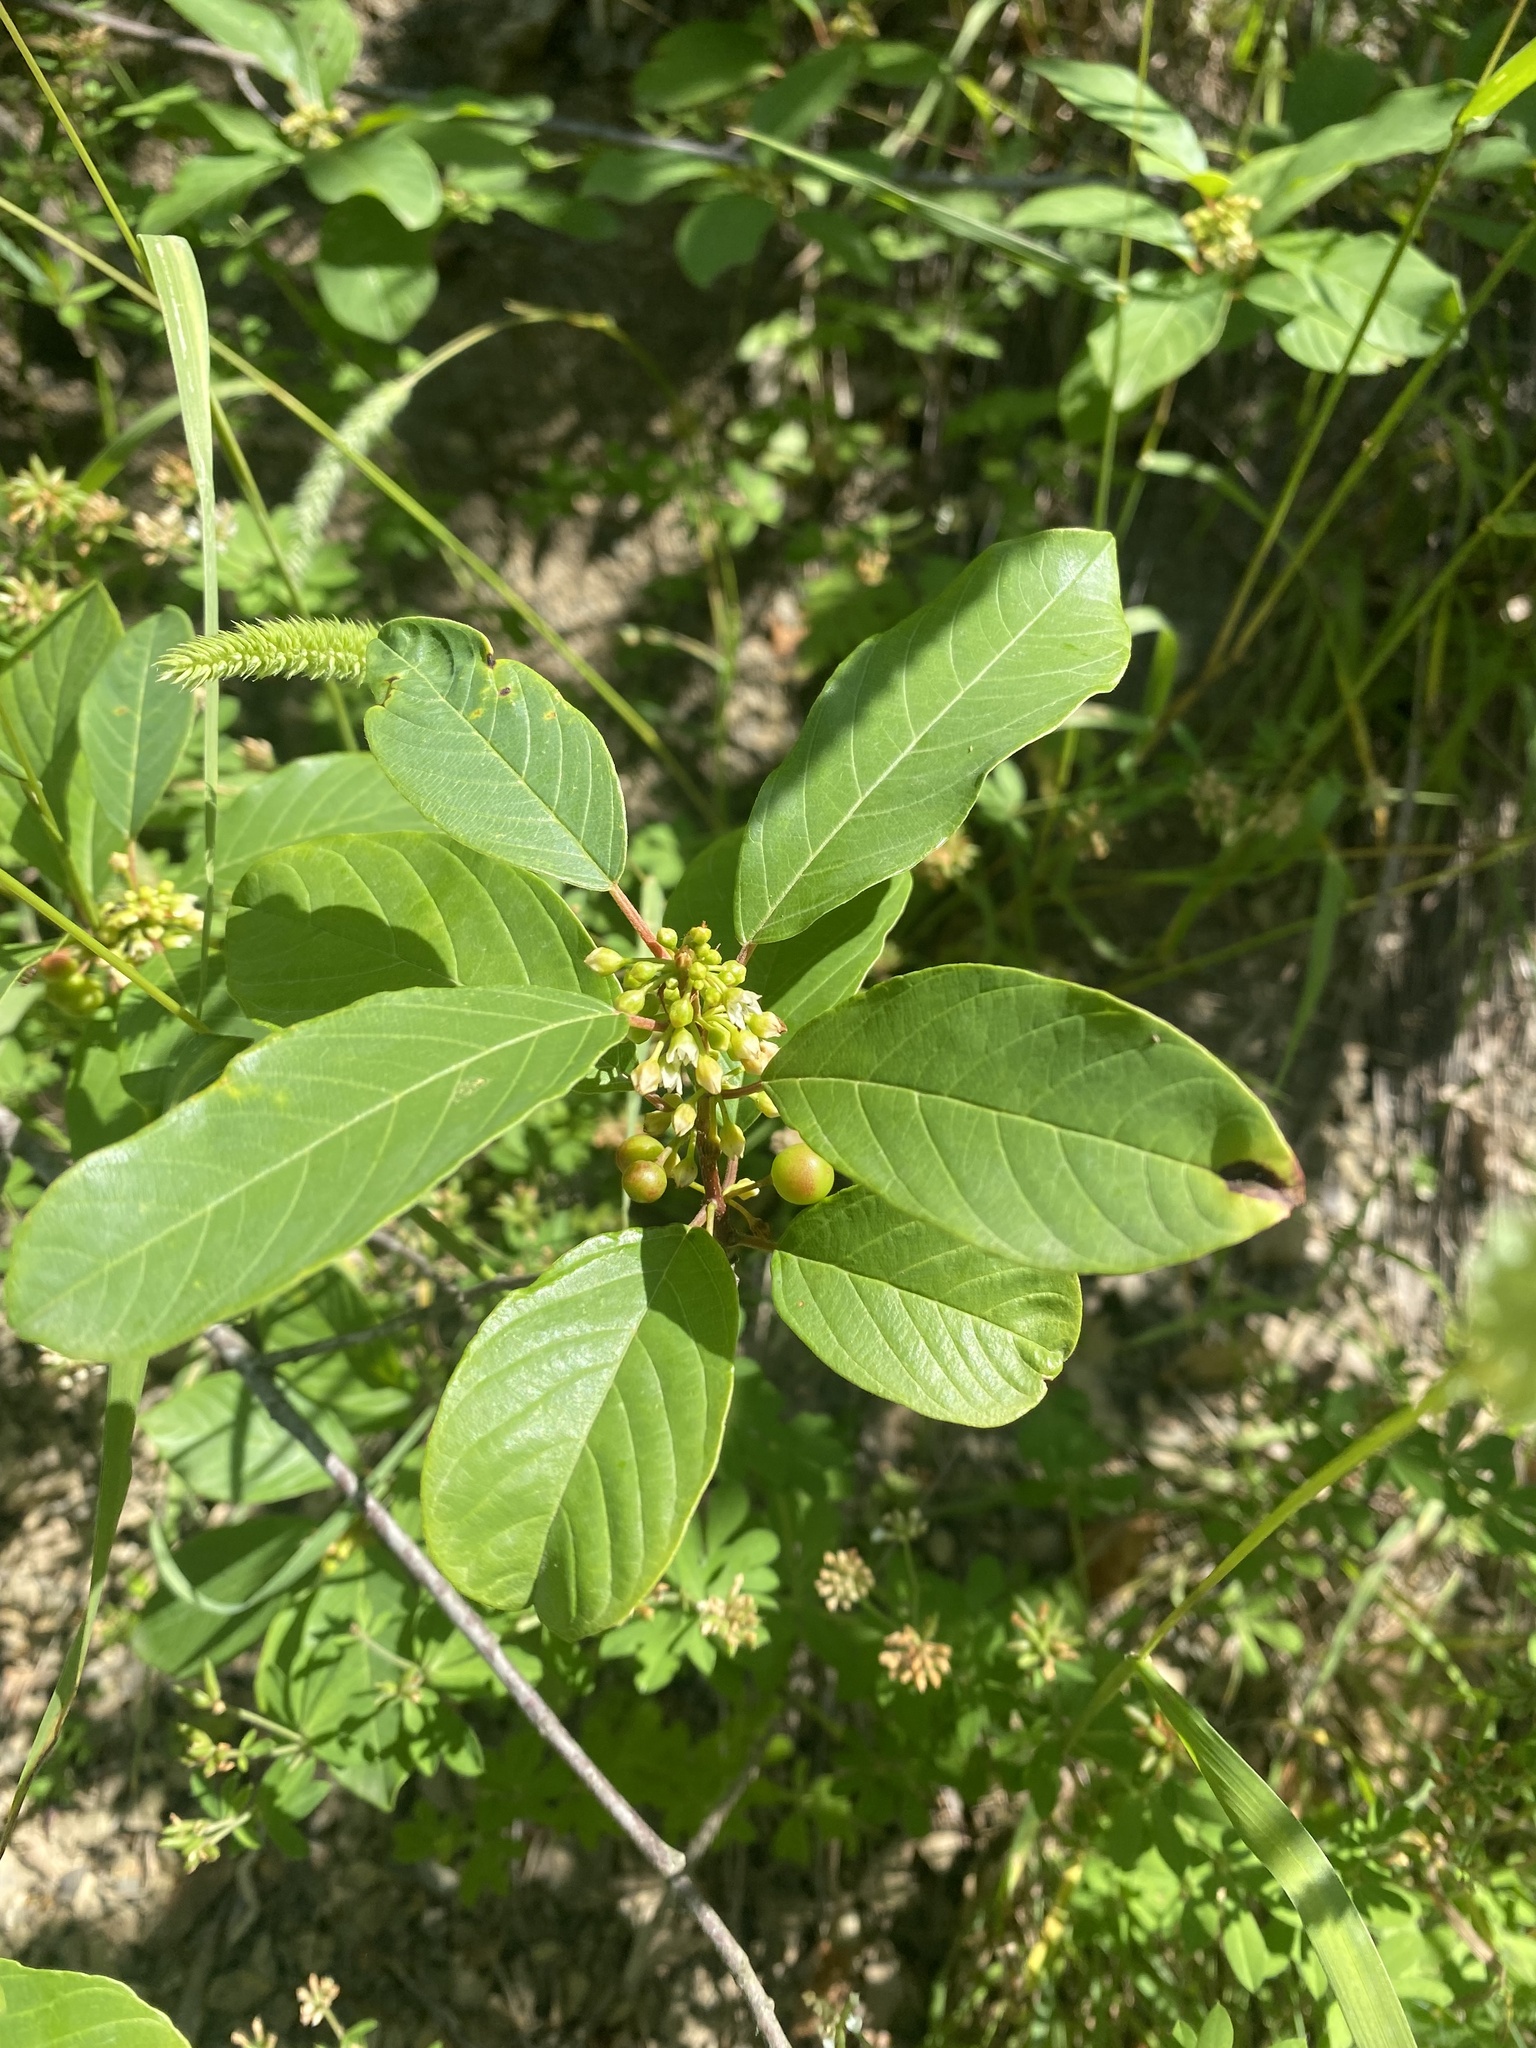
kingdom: Plantae
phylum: Tracheophyta
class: Magnoliopsida
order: Rosales
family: Rhamnaceae
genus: Frangula
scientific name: Frangula alnus
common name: Alder buckthorn
